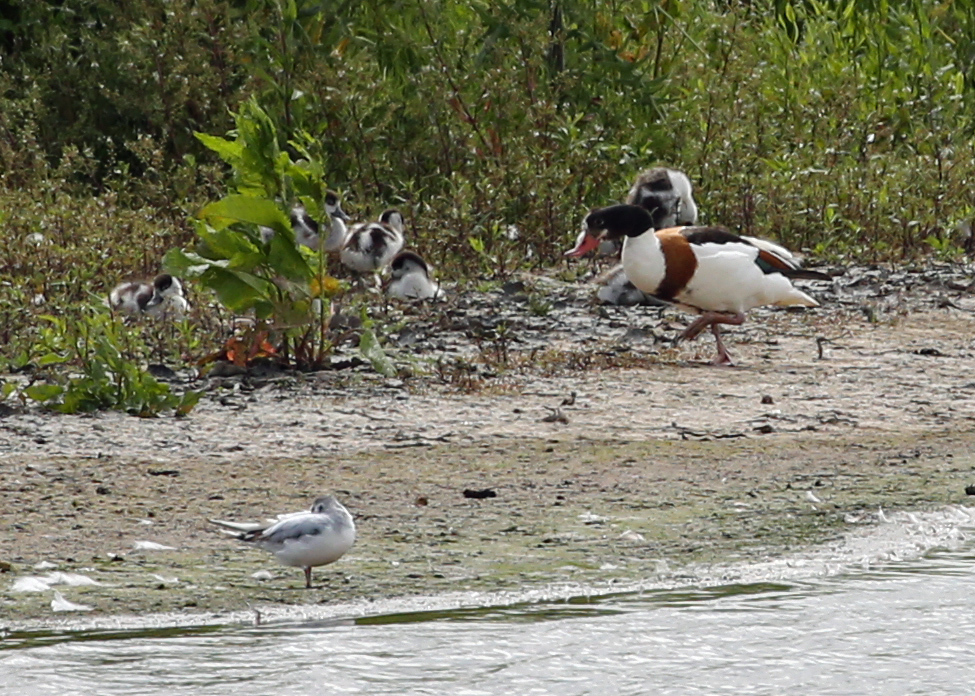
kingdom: Animalia
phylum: Chordata
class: Aves
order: Charadriiformes
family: Laridae
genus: Hydrocoloeus
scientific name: Hydrocoloeus minutus
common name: Little gull
